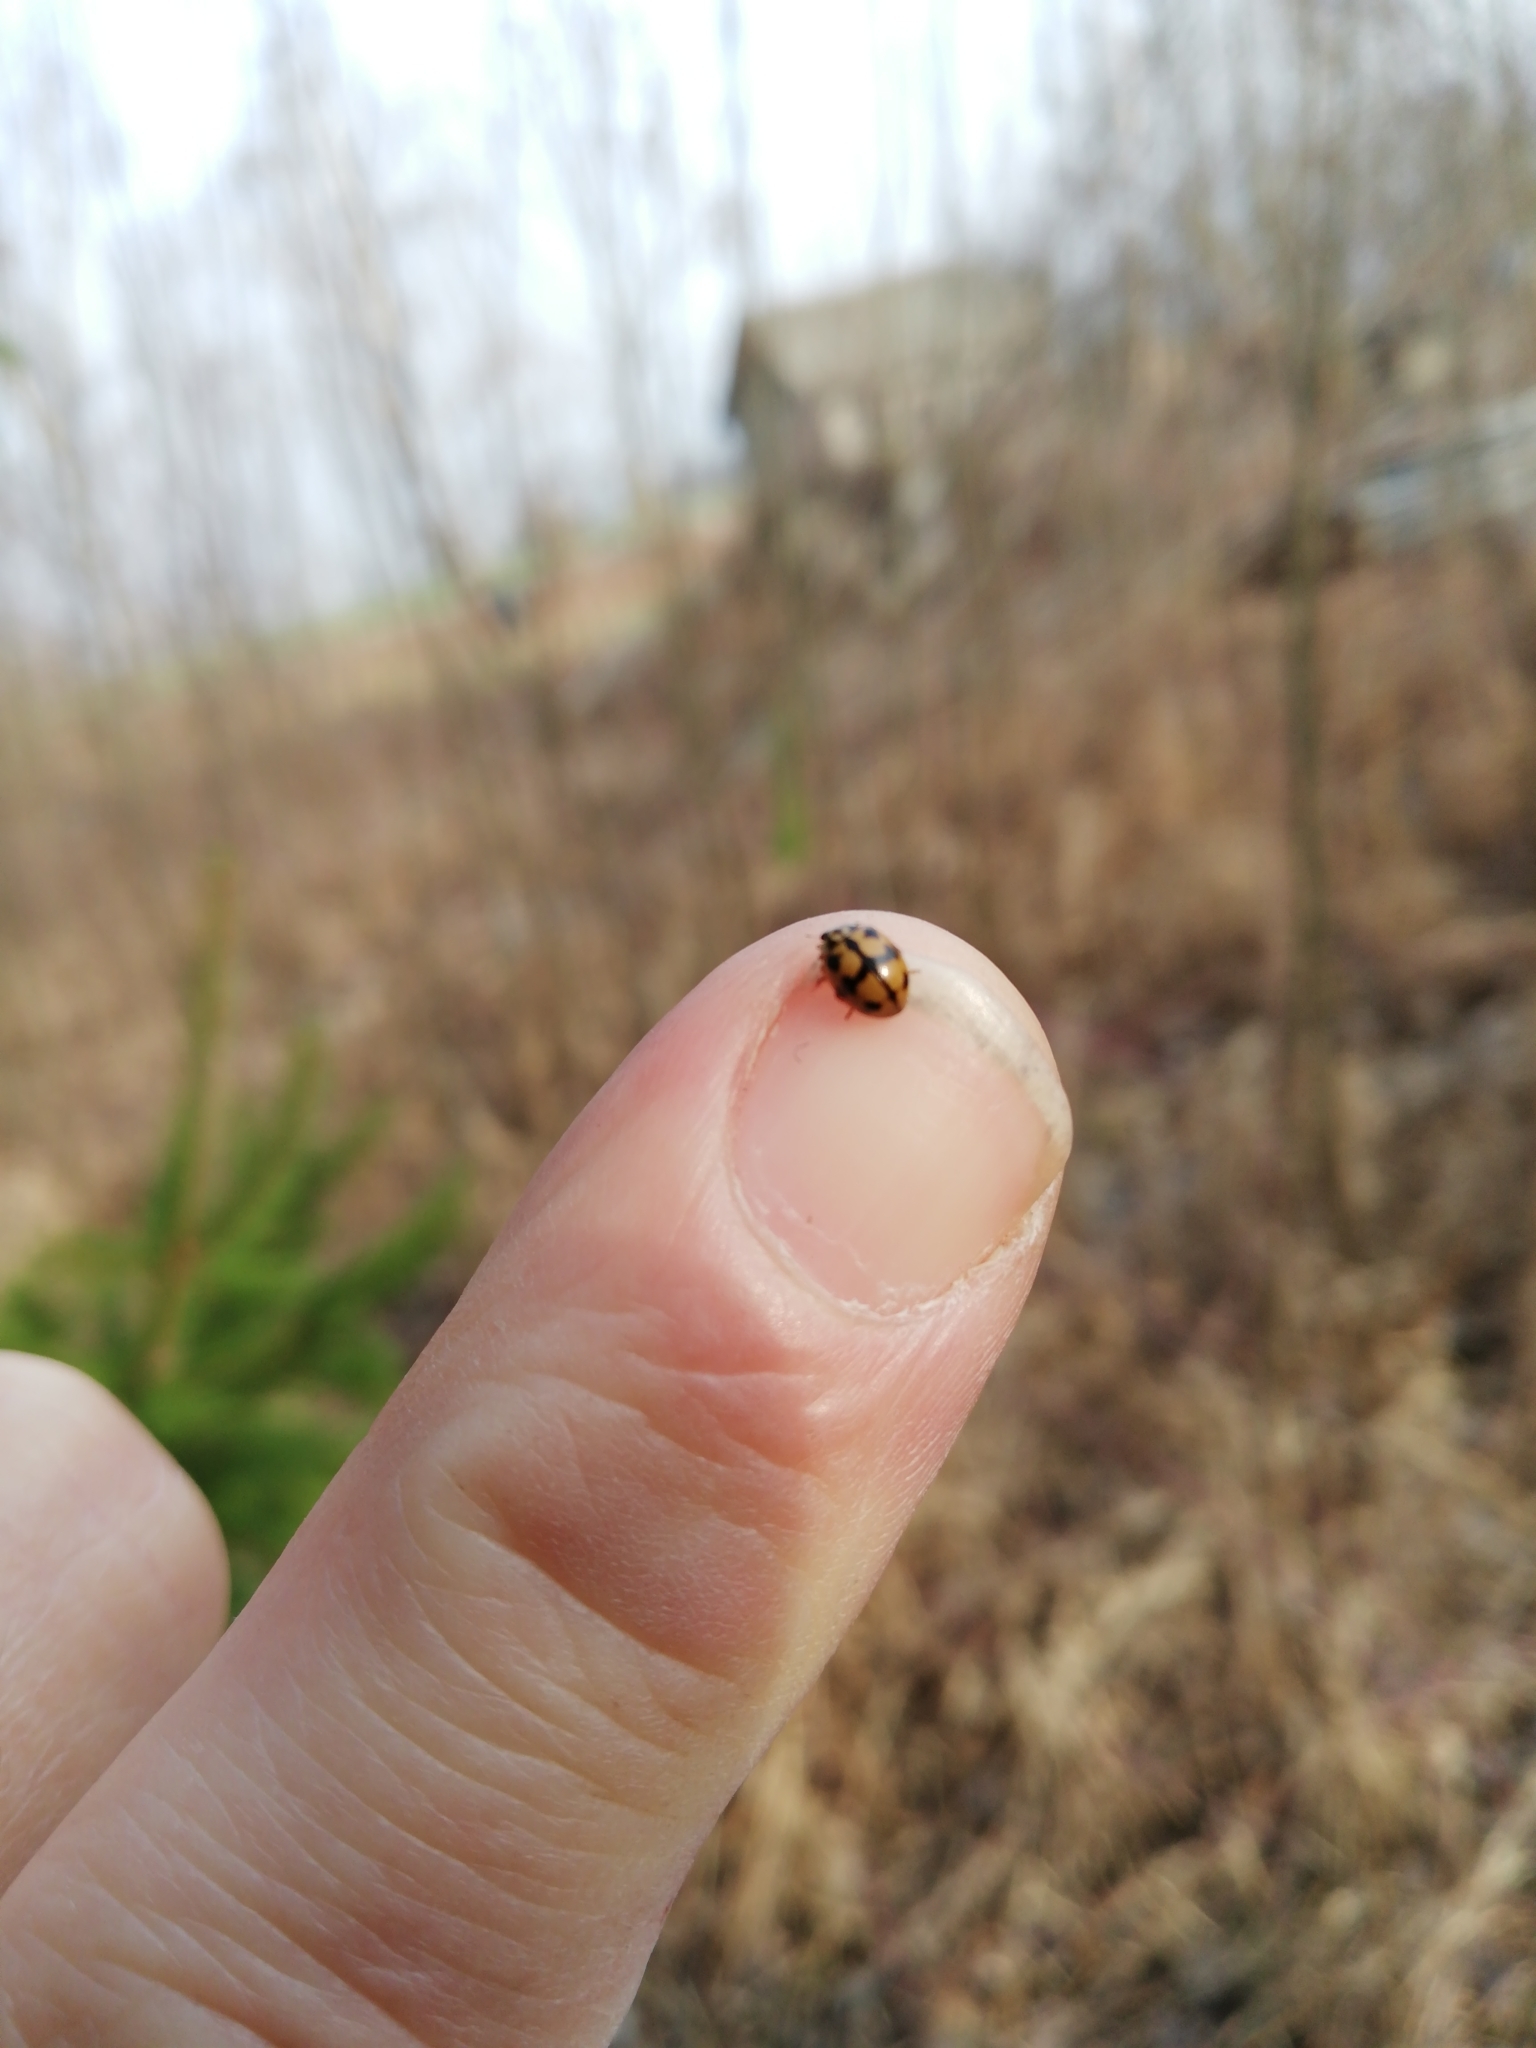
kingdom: Animalia
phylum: Arthropoda
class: Insecta
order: Coleoptera
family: Coccinellidae
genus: Adalia
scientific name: Adalia conglomerata
